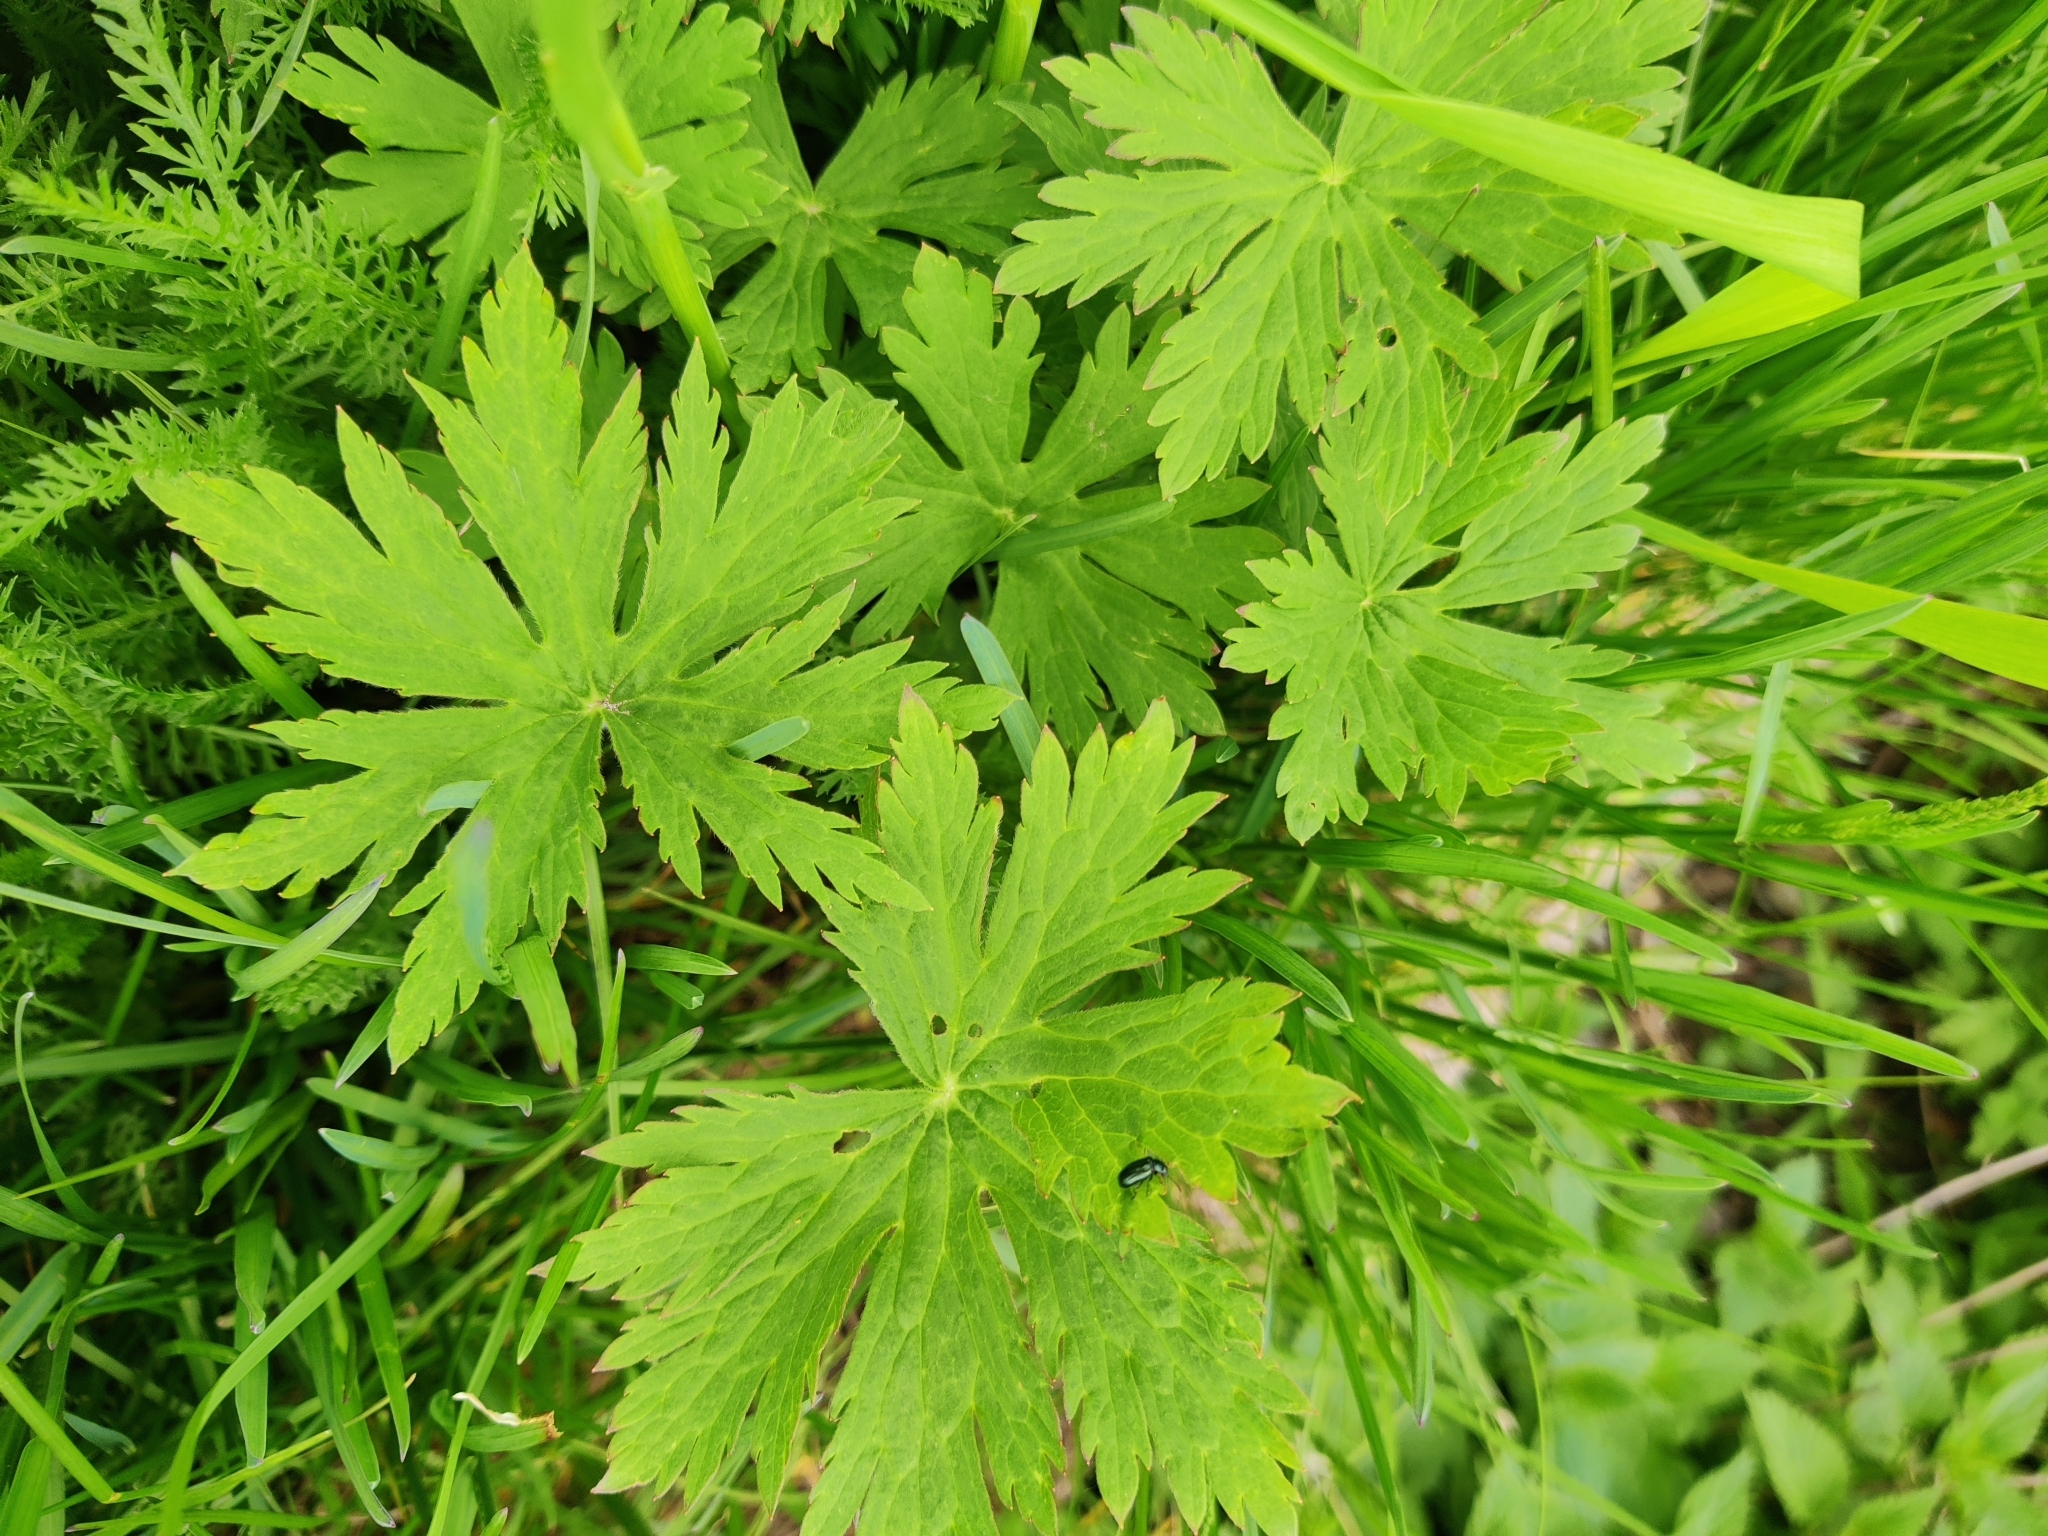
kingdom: Plantae
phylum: Tracheophyta
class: Magnoliopsida
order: Geraniales
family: Geraniaceae
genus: Geranium
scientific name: Geranium pratense
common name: Meadow crane's-bill
